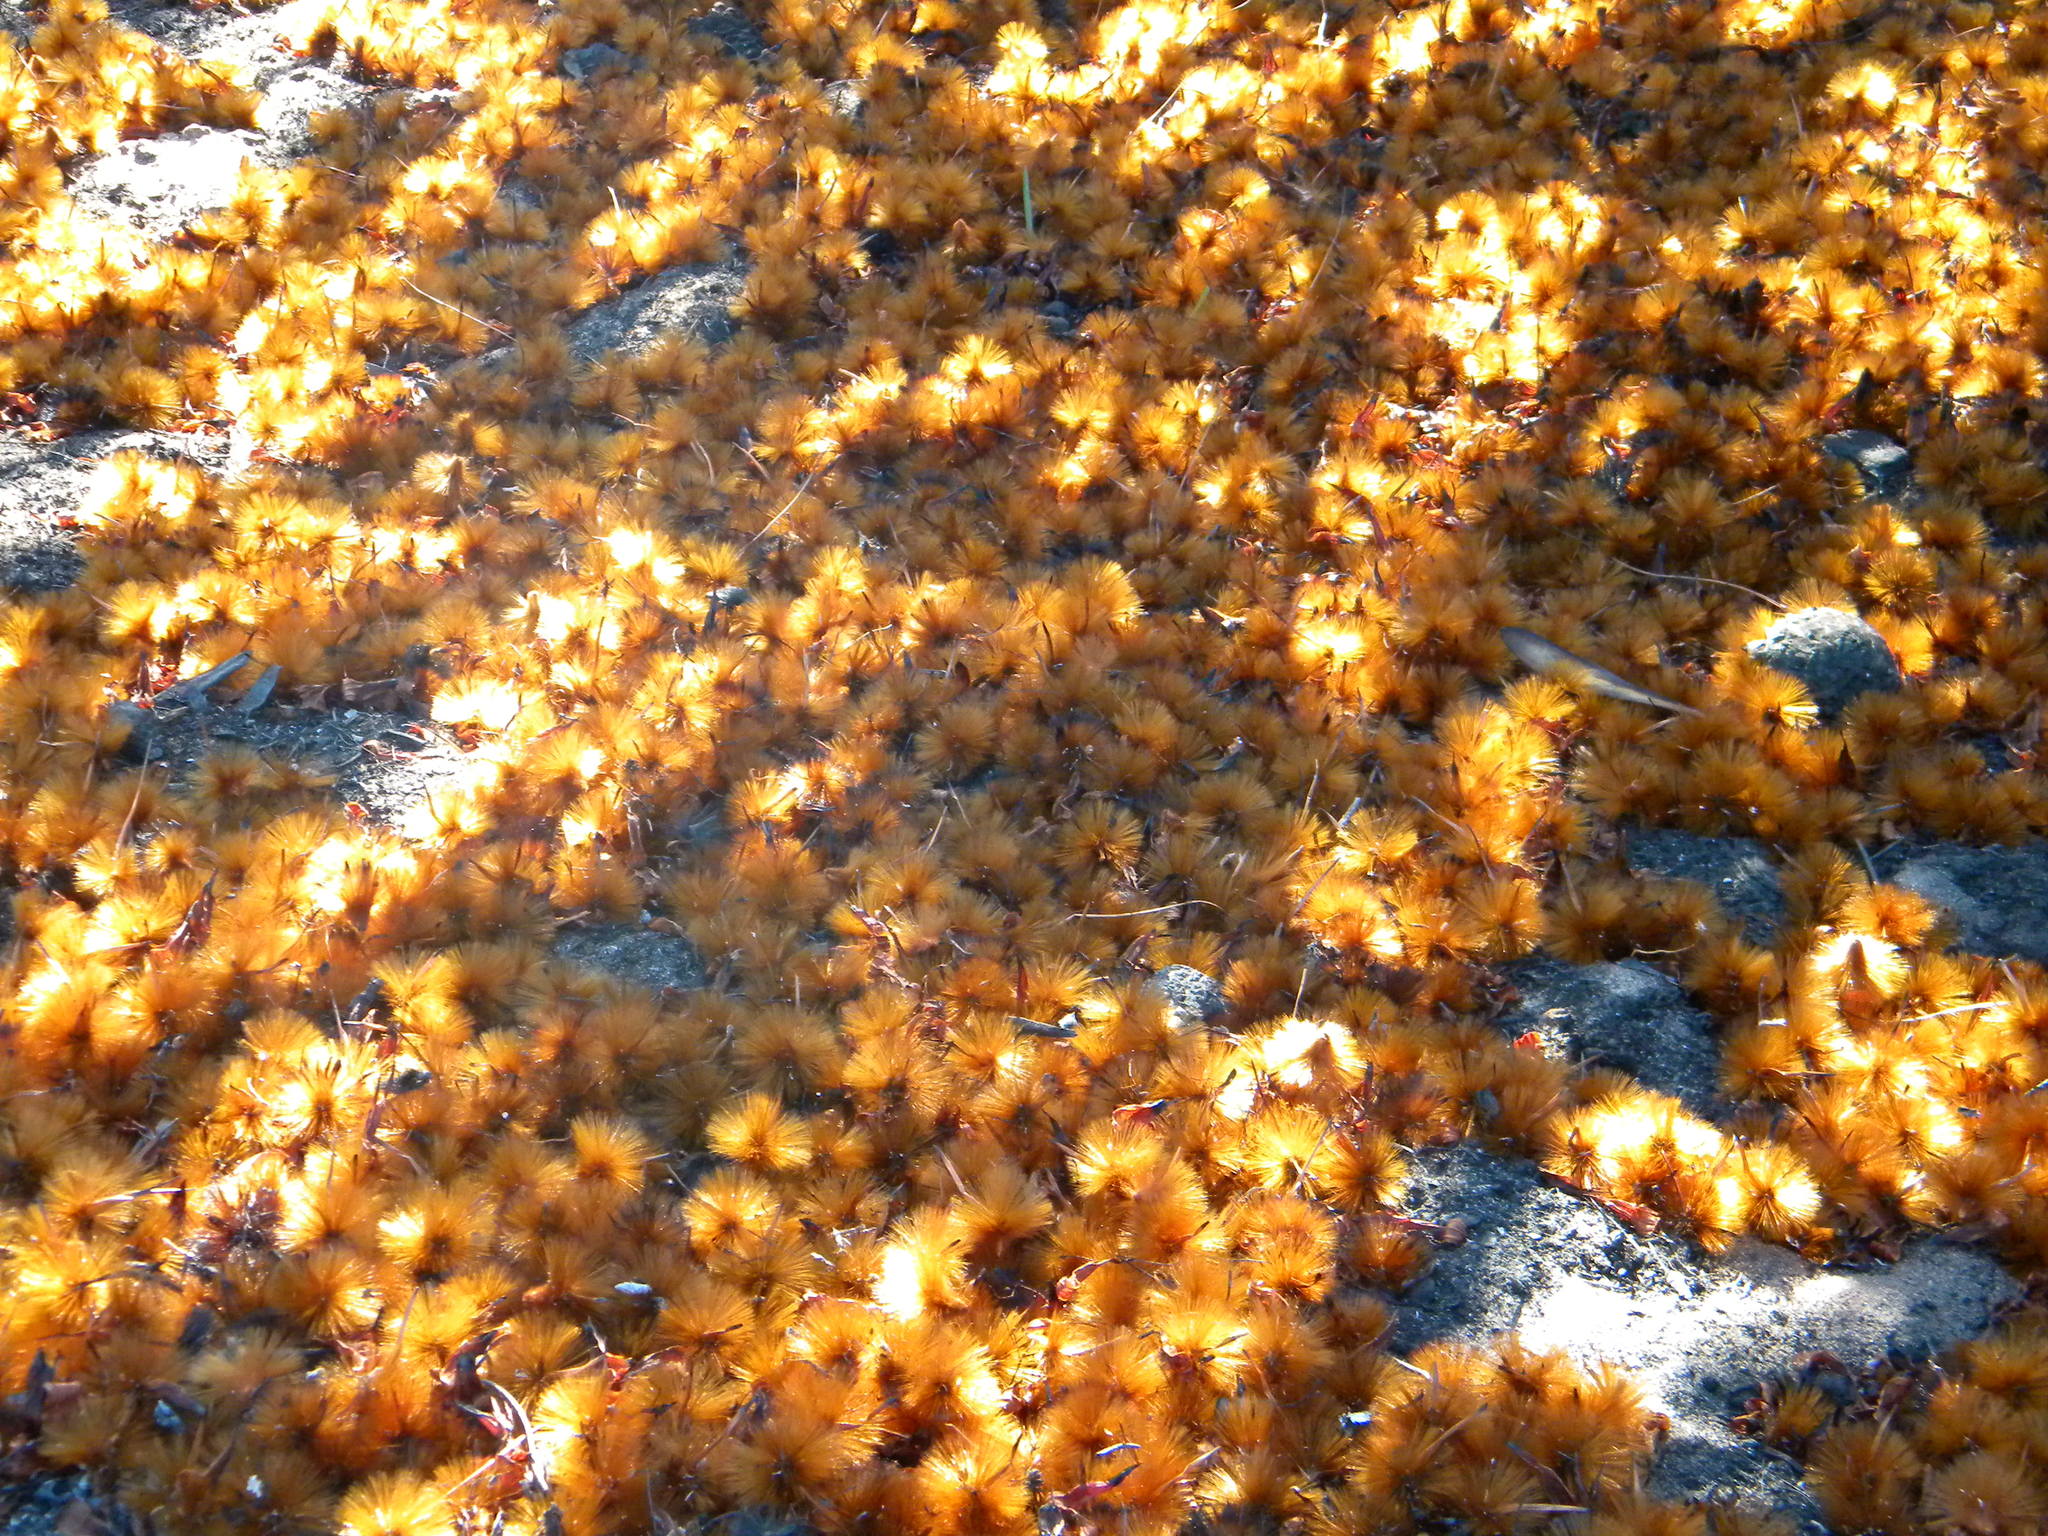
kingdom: Plantae
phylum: Tracheophyta
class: Magnoliopsida
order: Proteales
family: Proteaceae
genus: Protea
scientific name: Protea repens
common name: Sugarbush
